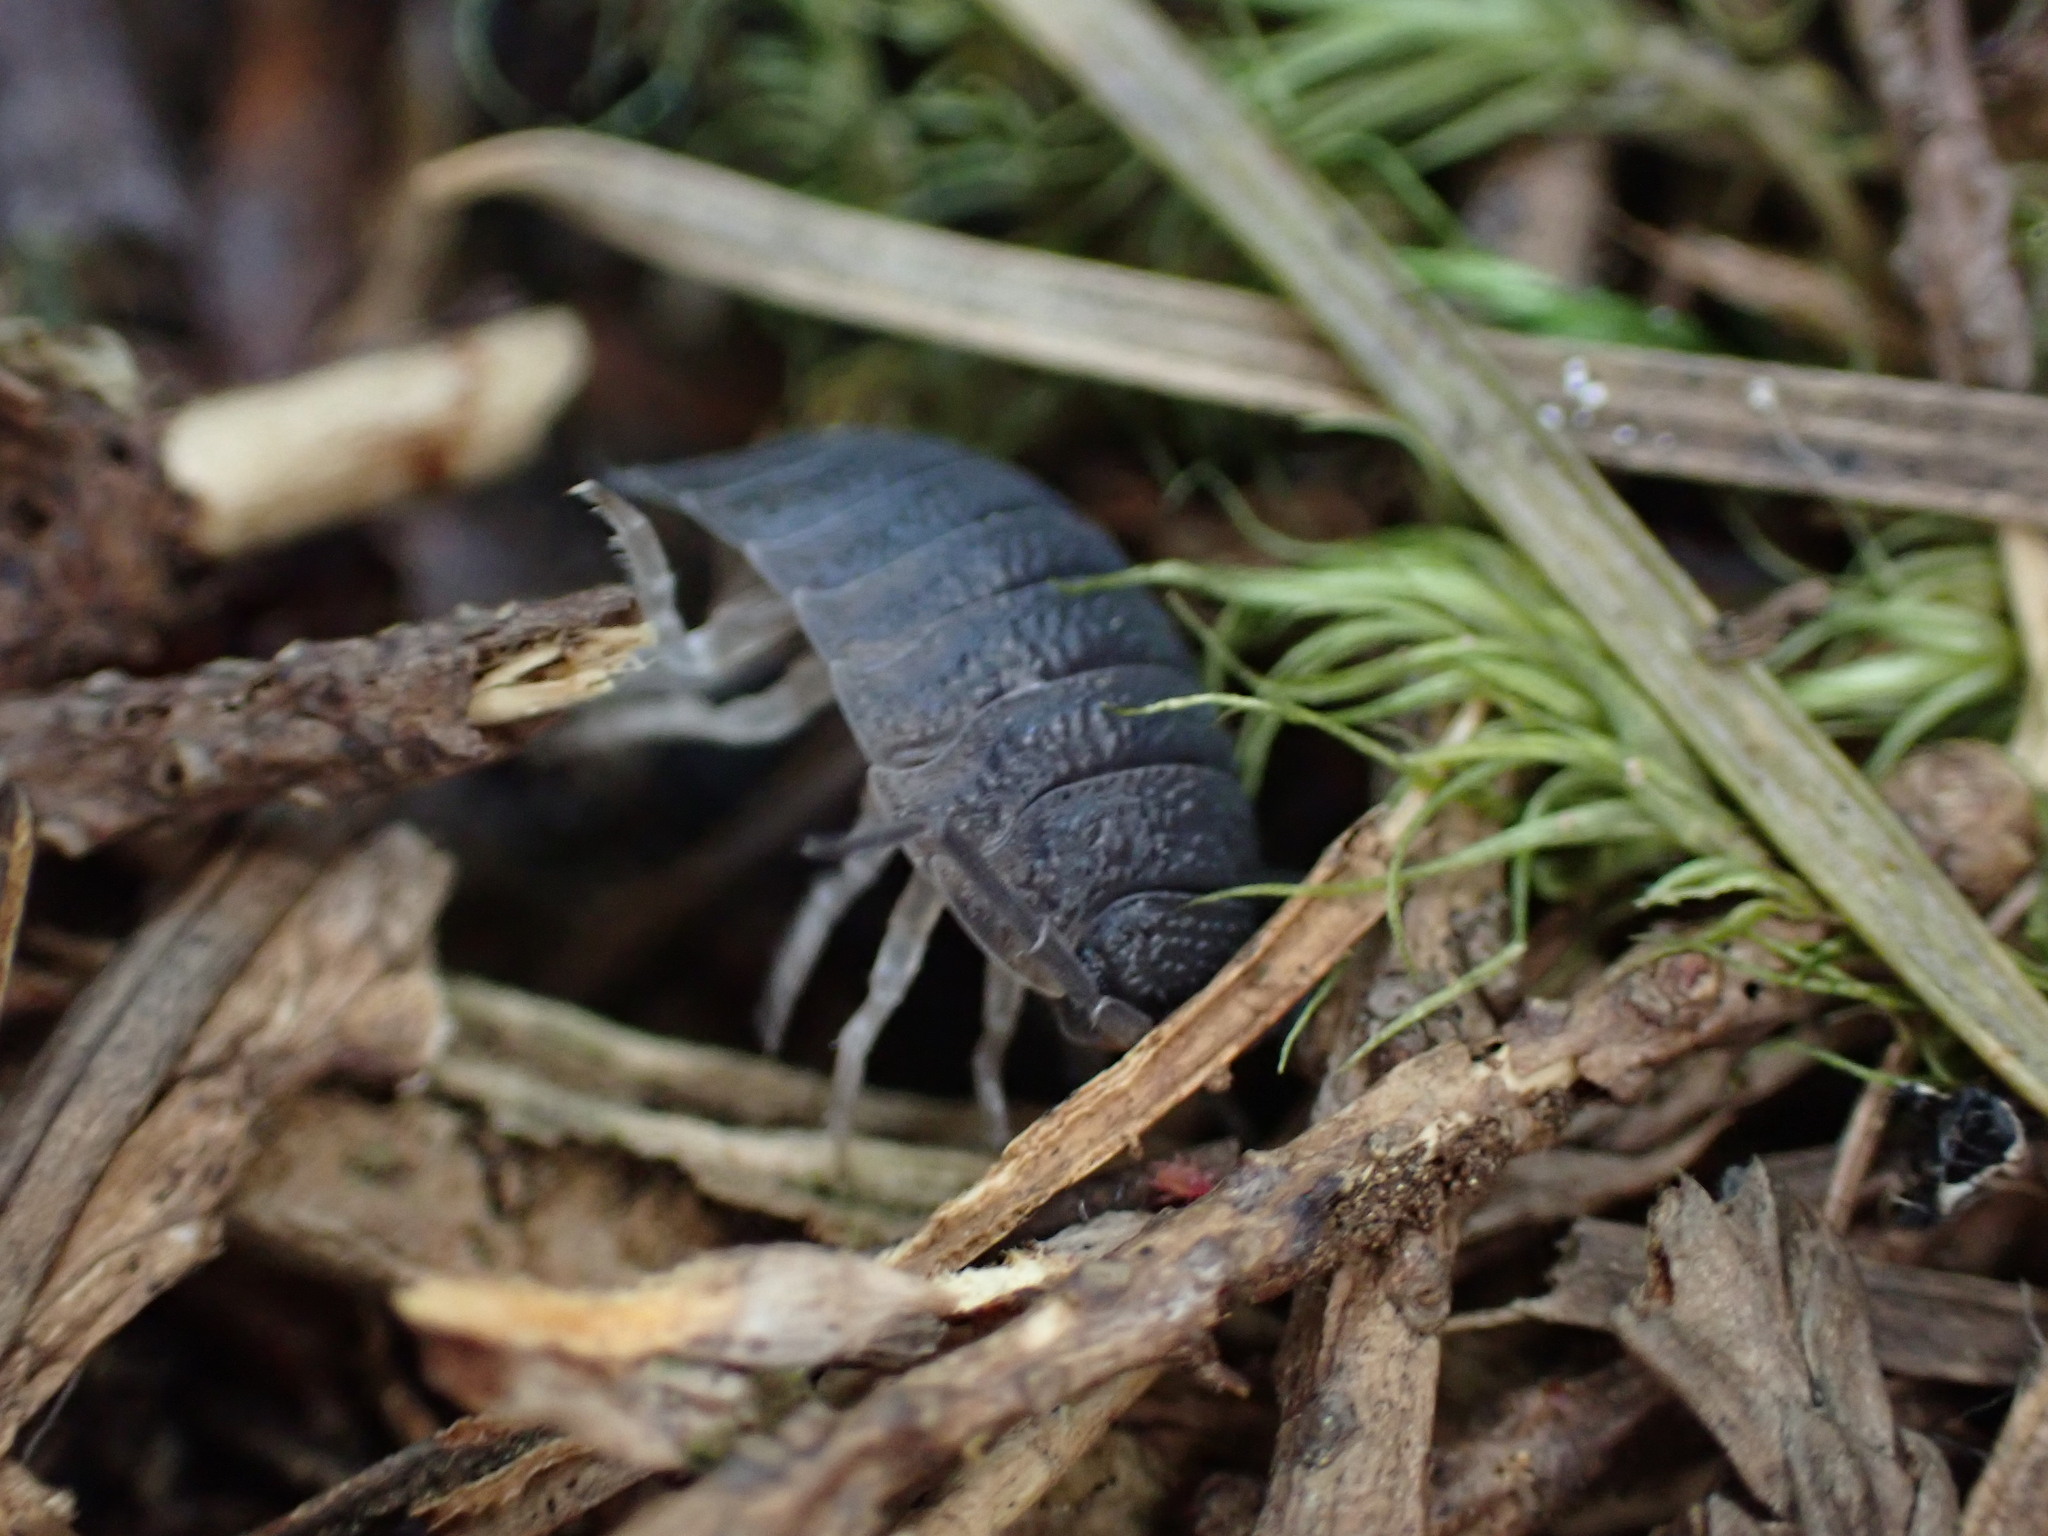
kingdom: Animalia
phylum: Arthropoda
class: Malacostraca
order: Isopoda
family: Porcellionidae
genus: Porcellio
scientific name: Porcellio scaber
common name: Common rough woodlouse
